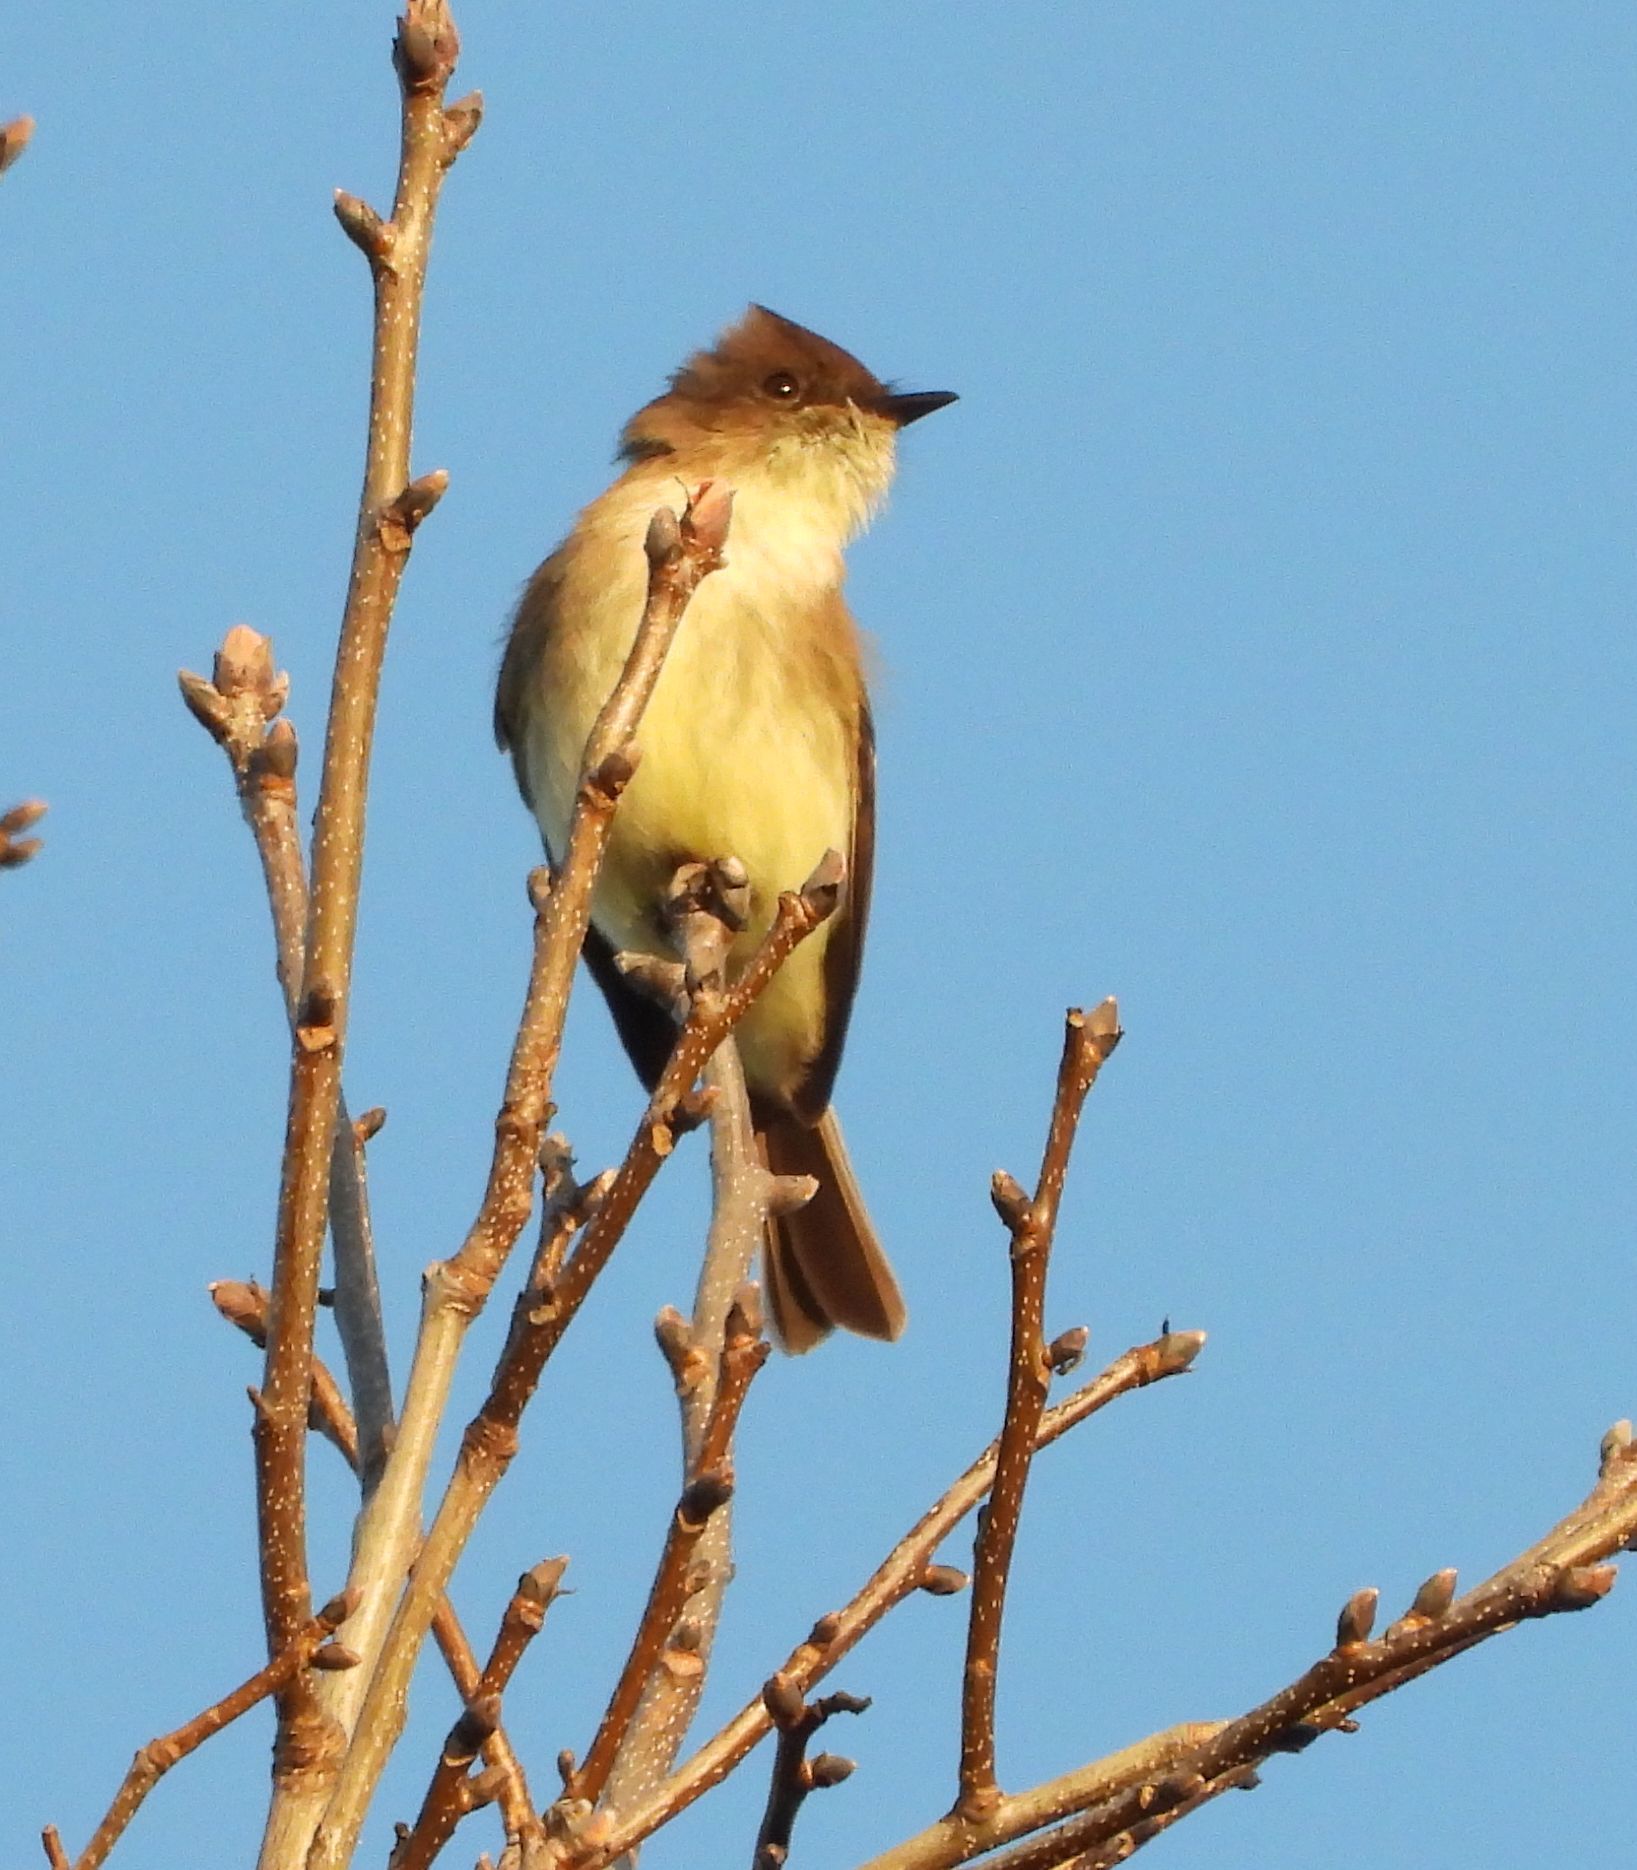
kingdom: Animalia
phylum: Chordata
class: Aves
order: Passeriformes
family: Tyrannidae
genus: Sayornis
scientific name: Sayornis phoebe
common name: Eastern phoebe
